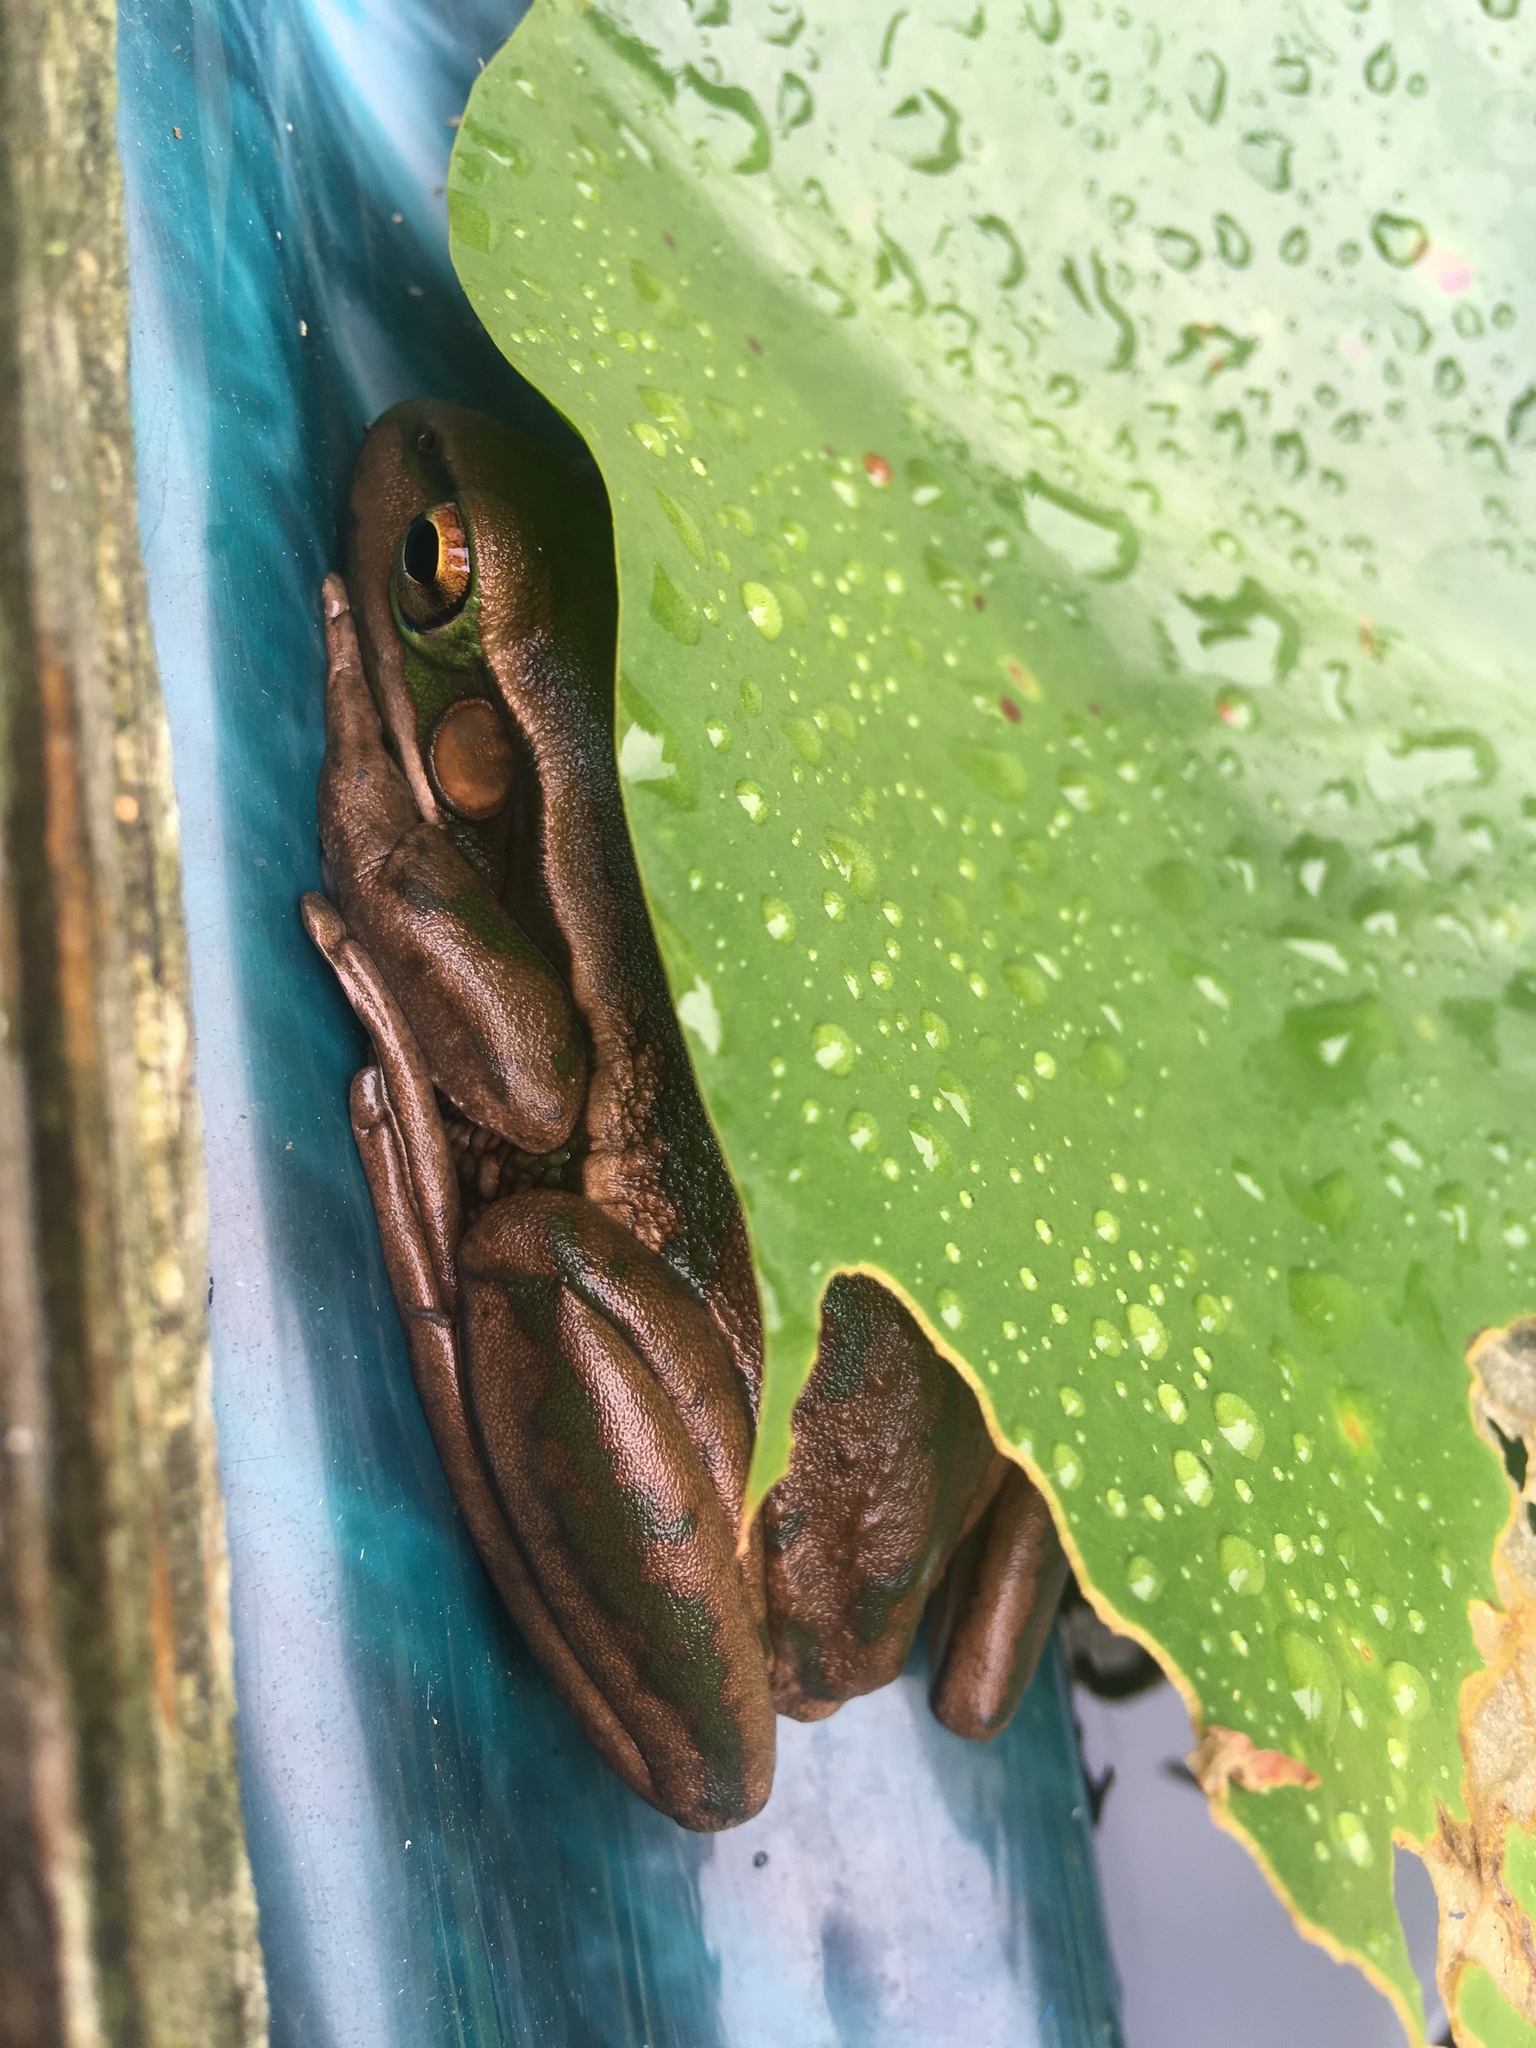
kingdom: Animalia
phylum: Chordata
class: Amphibia
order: Anura
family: Pelodryadidae
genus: Ranoidea
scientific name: Ranoidea aurea
